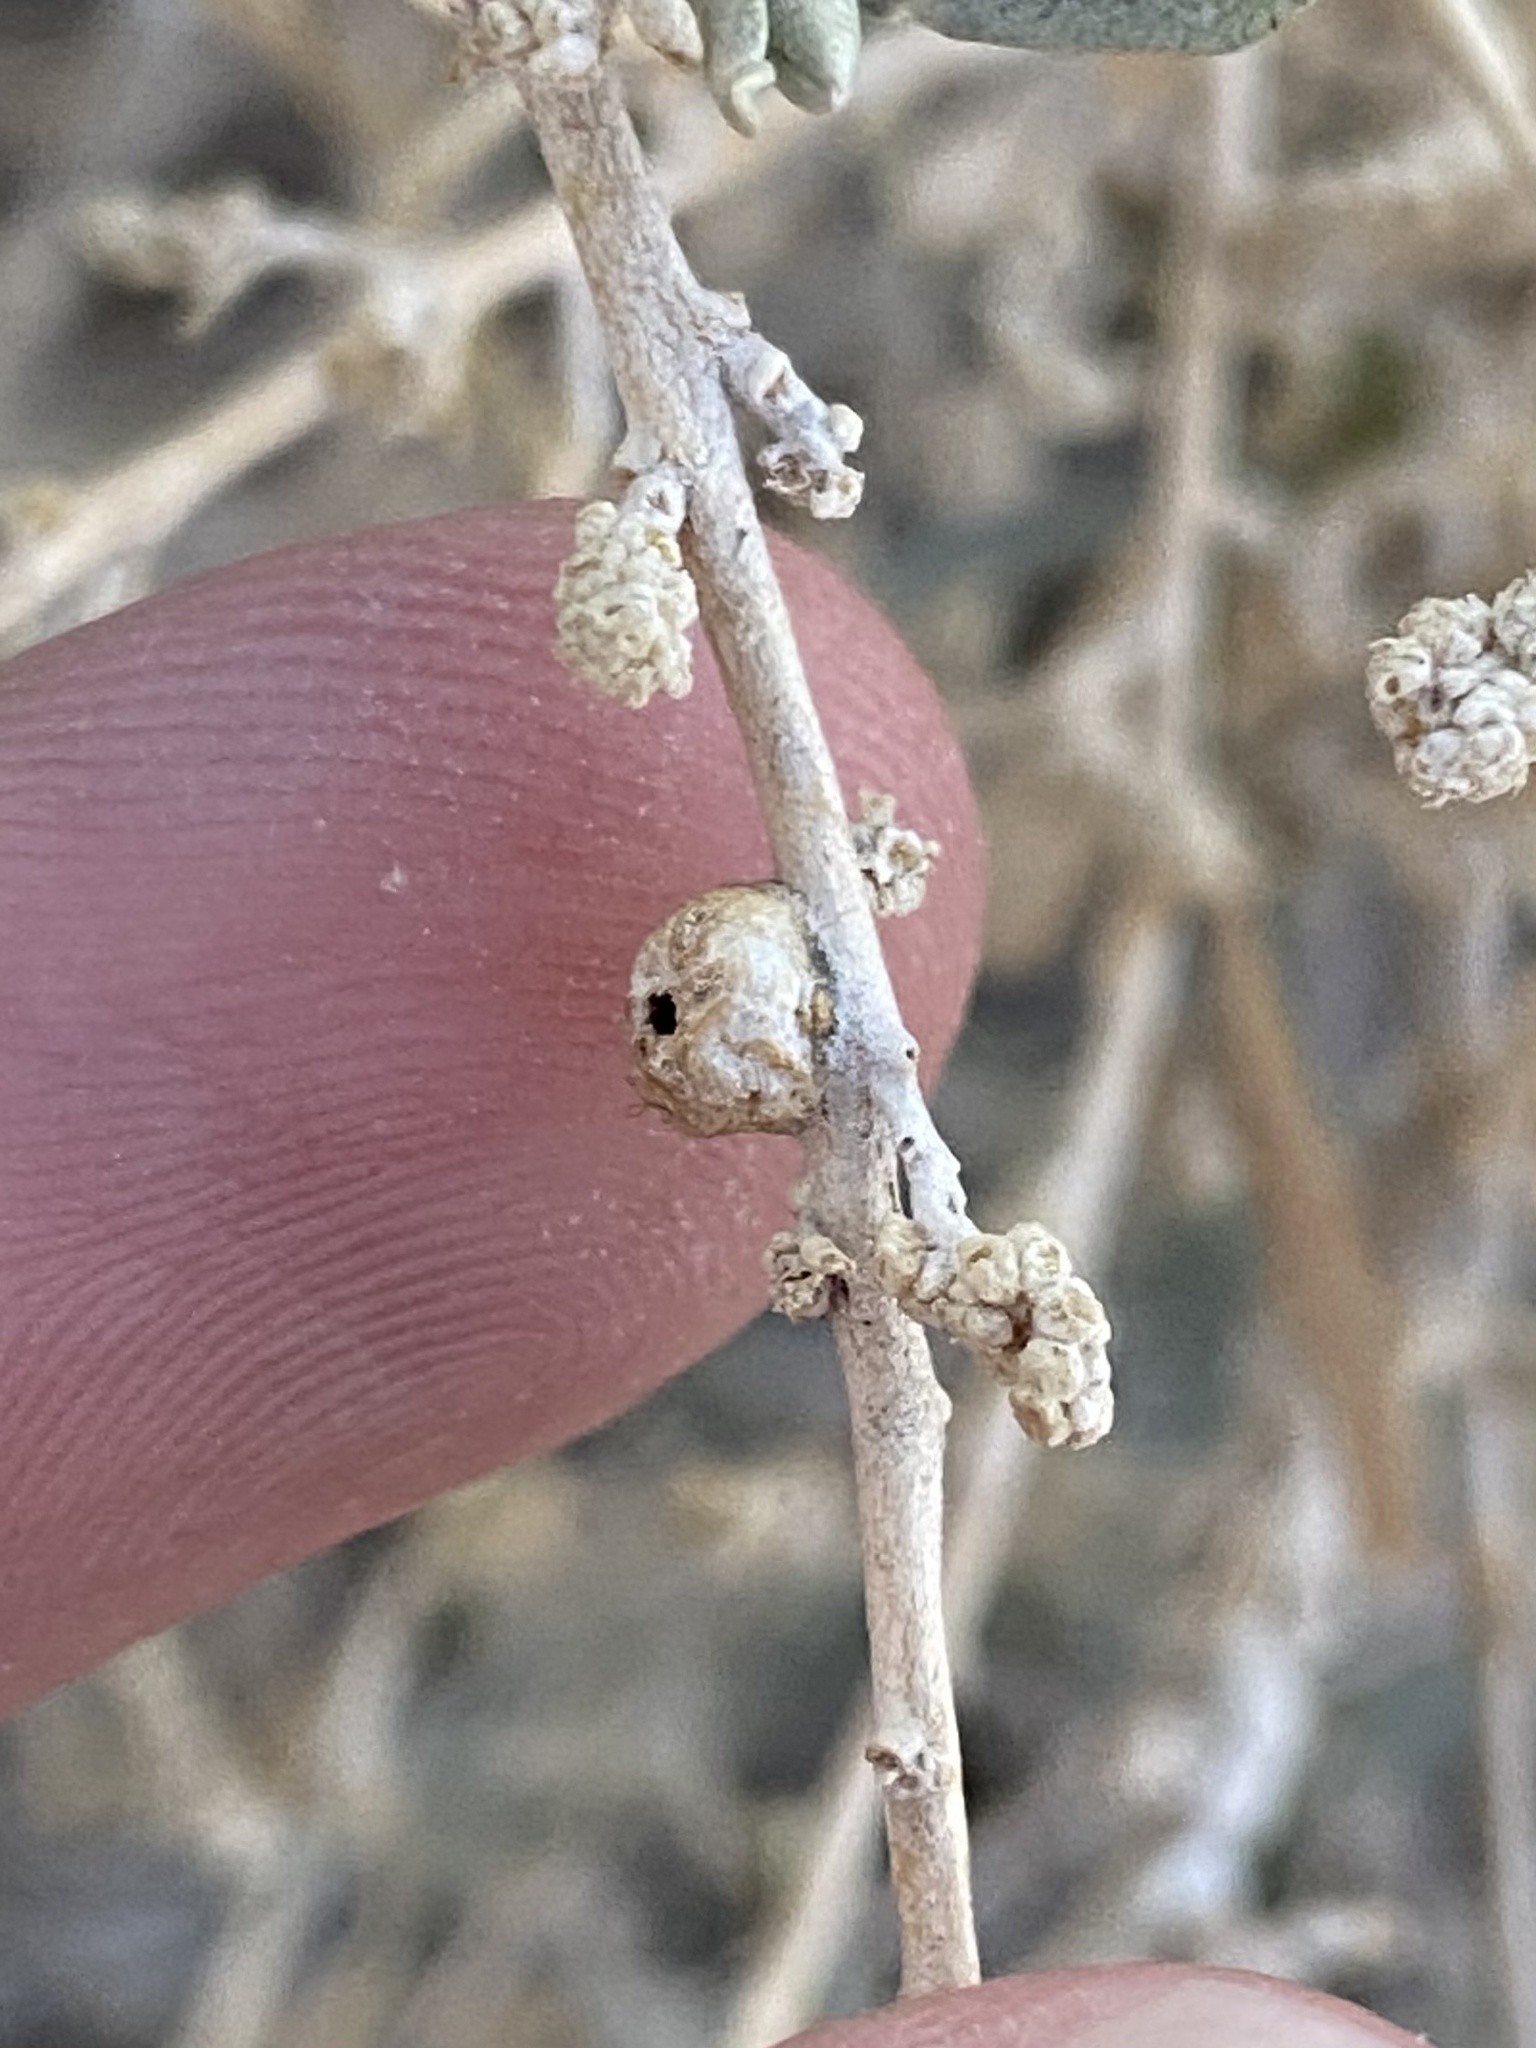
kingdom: Animalia
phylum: Arthropoda
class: Insecta
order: Diptera
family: Cecidomyiidae
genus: Asphondylia
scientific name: Asphondylia caudicis
